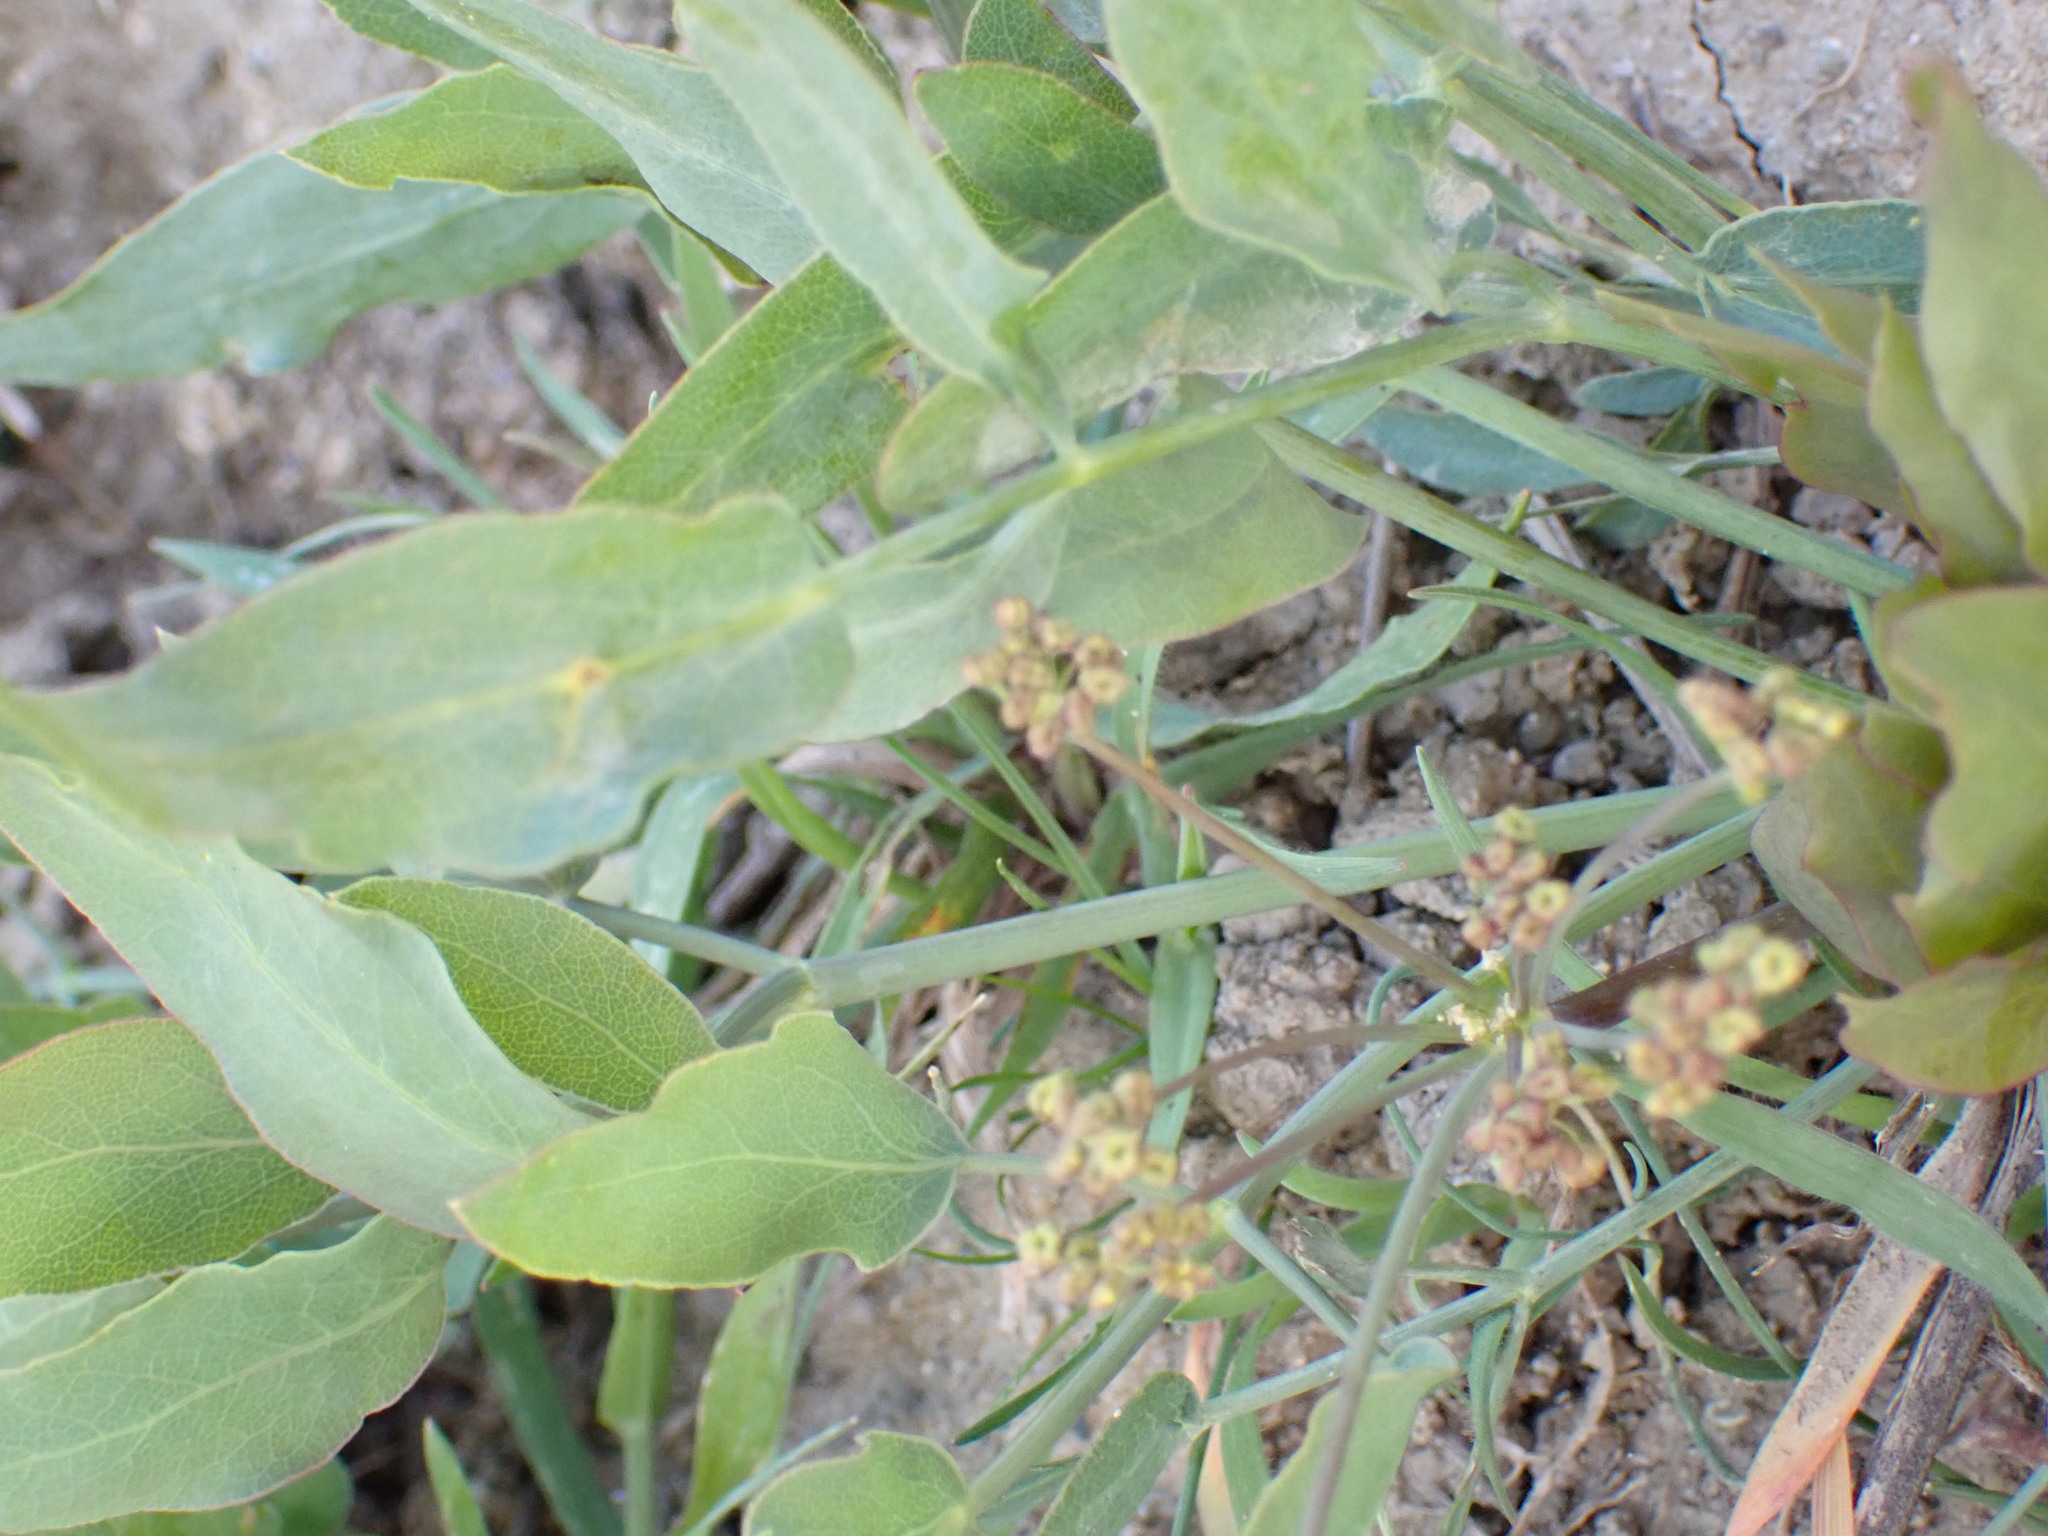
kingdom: Plantae
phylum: Tracheophyta
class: Magnoliopsida
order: Apiales
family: Apiaceae
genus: Lomatium
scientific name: Lomatium nudicaule
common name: Pestle lomatium
